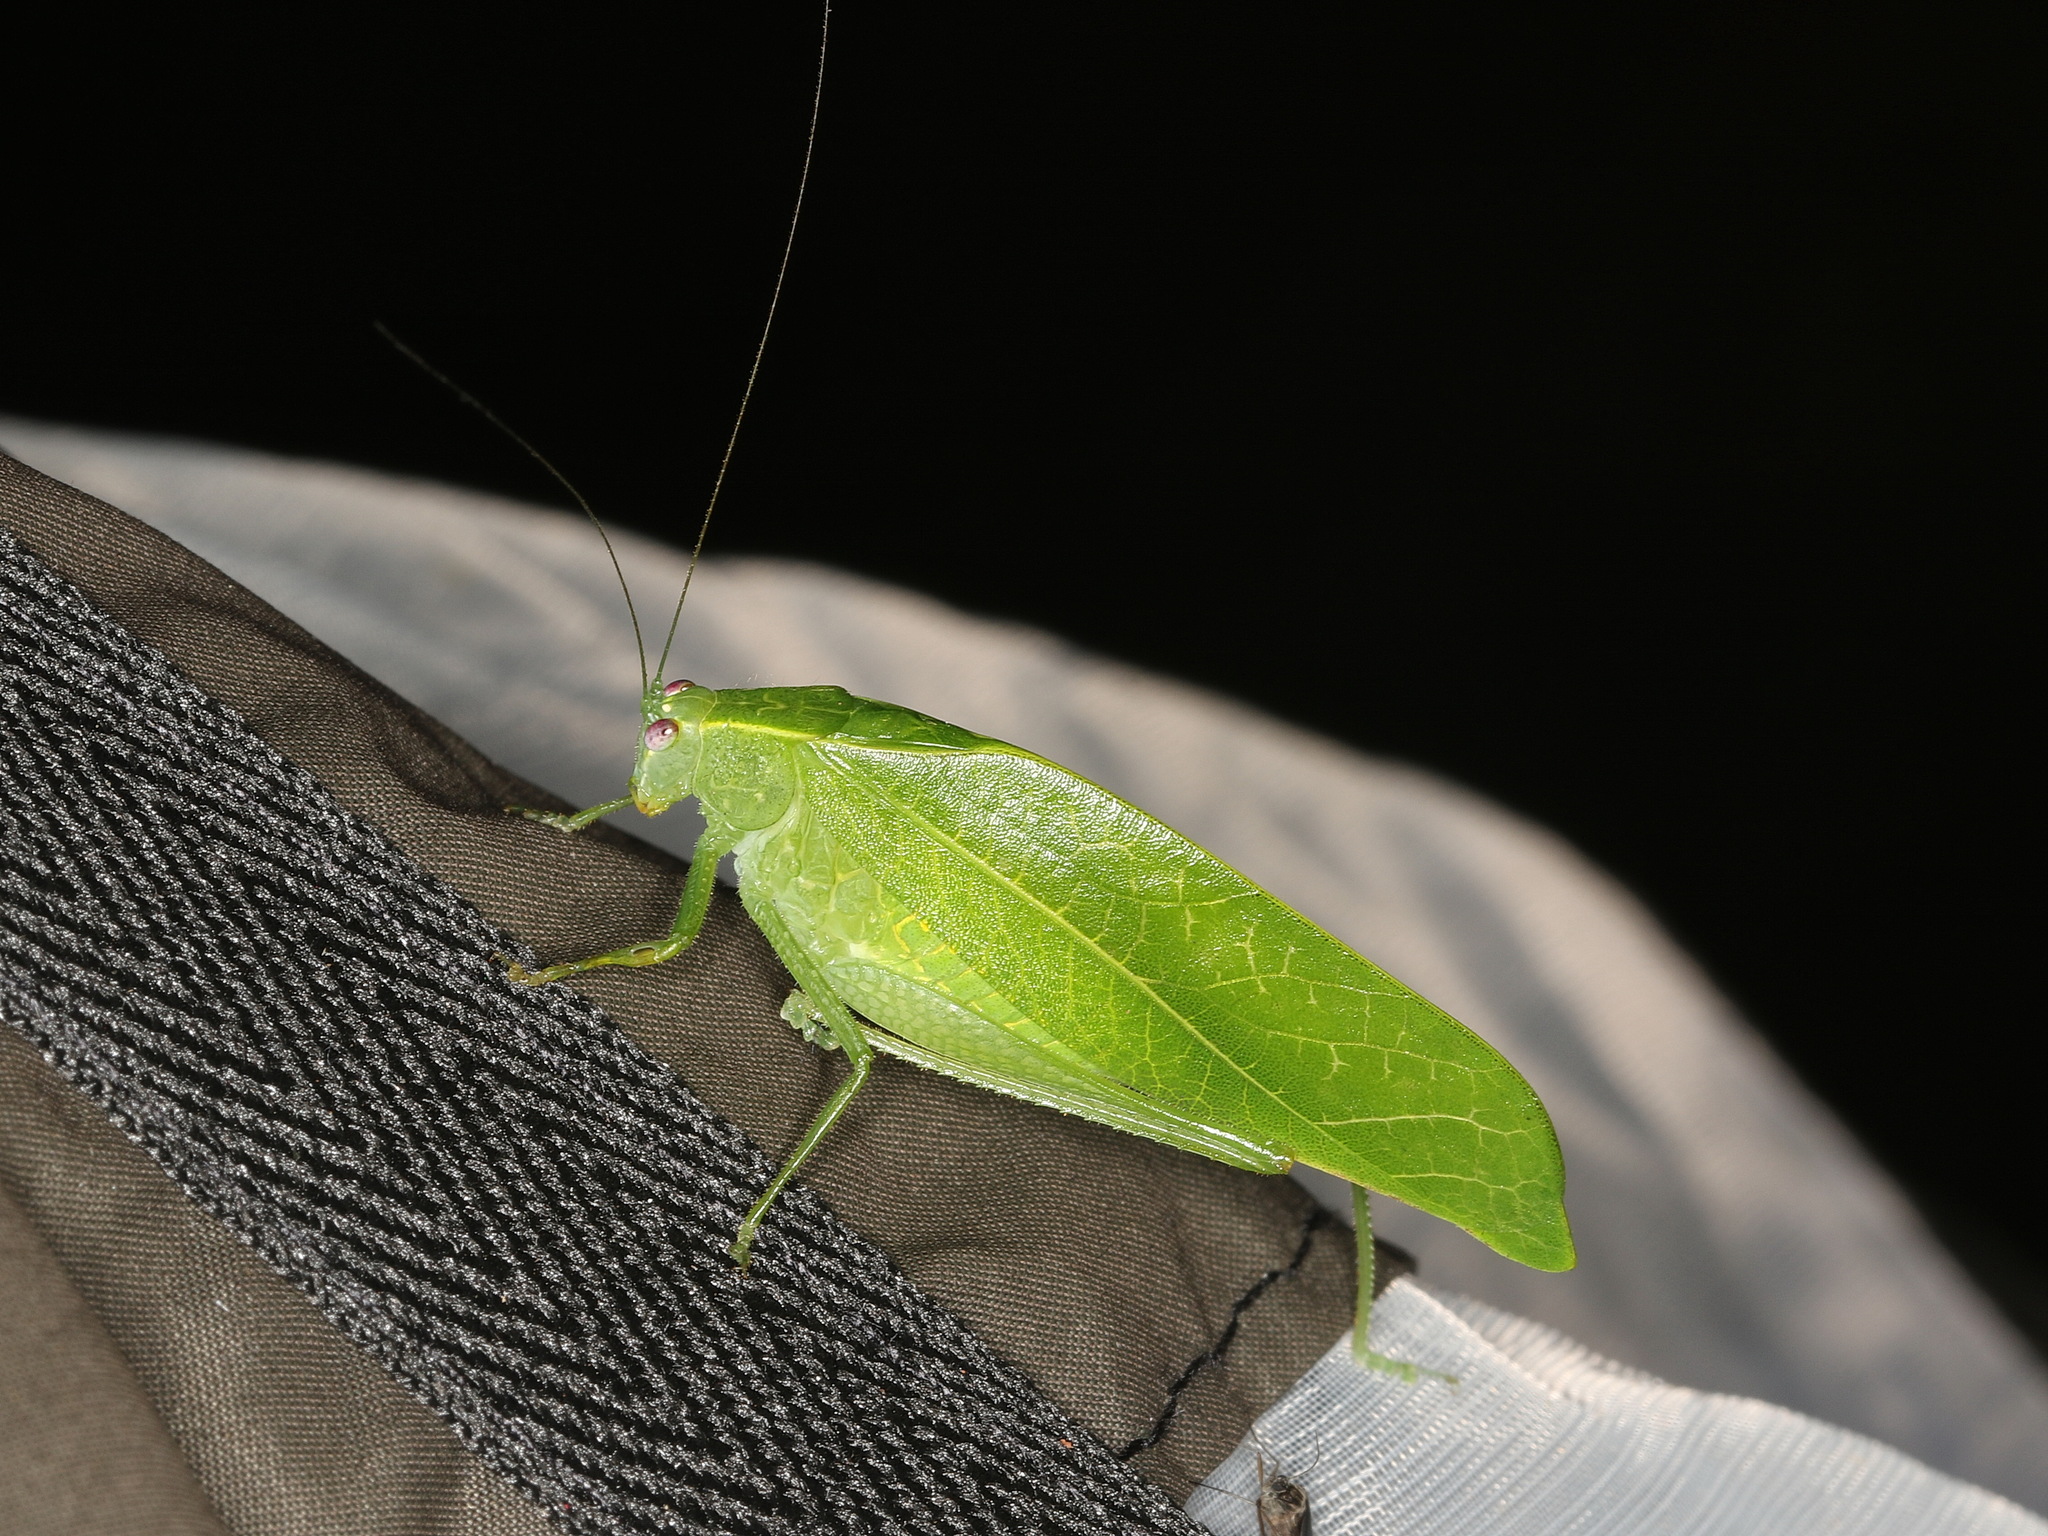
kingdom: Animalia
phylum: Arthropoda
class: Insecta
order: Orthoptera
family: Tettigoniidae
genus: Diastella
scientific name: Diastella latifolia
